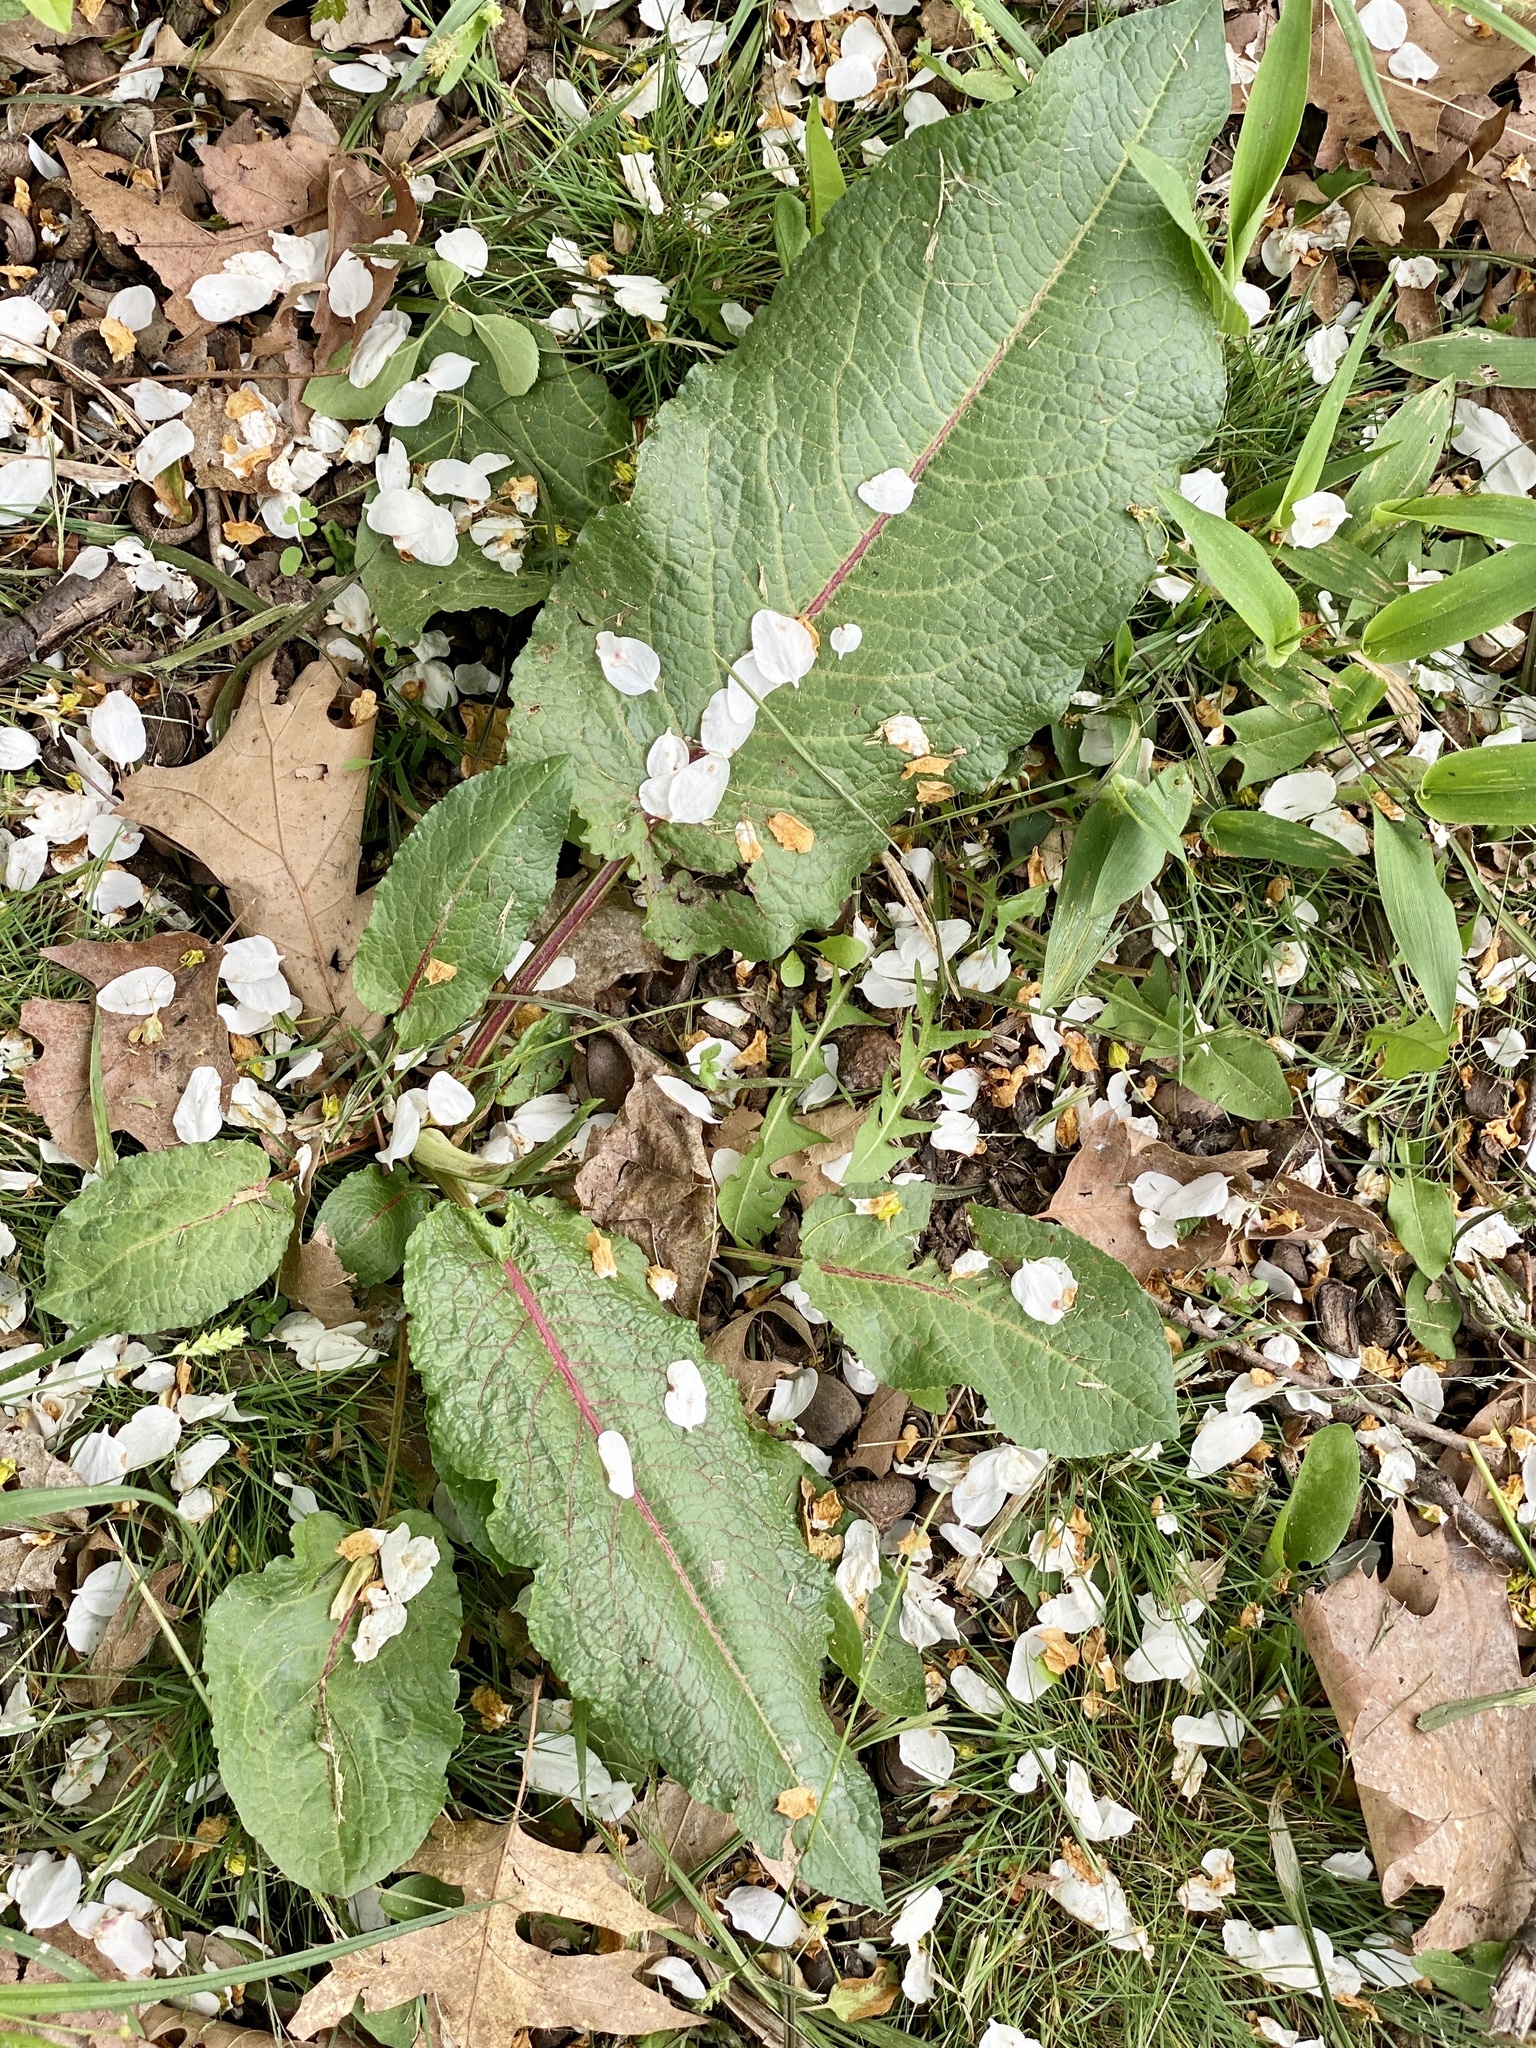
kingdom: Plantae
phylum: Tracheophyta
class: Magnoliopsida
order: Caryophyllales
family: Polygonaceae
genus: Rumex
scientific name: Rumex obtusifolius
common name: Bitter dock
